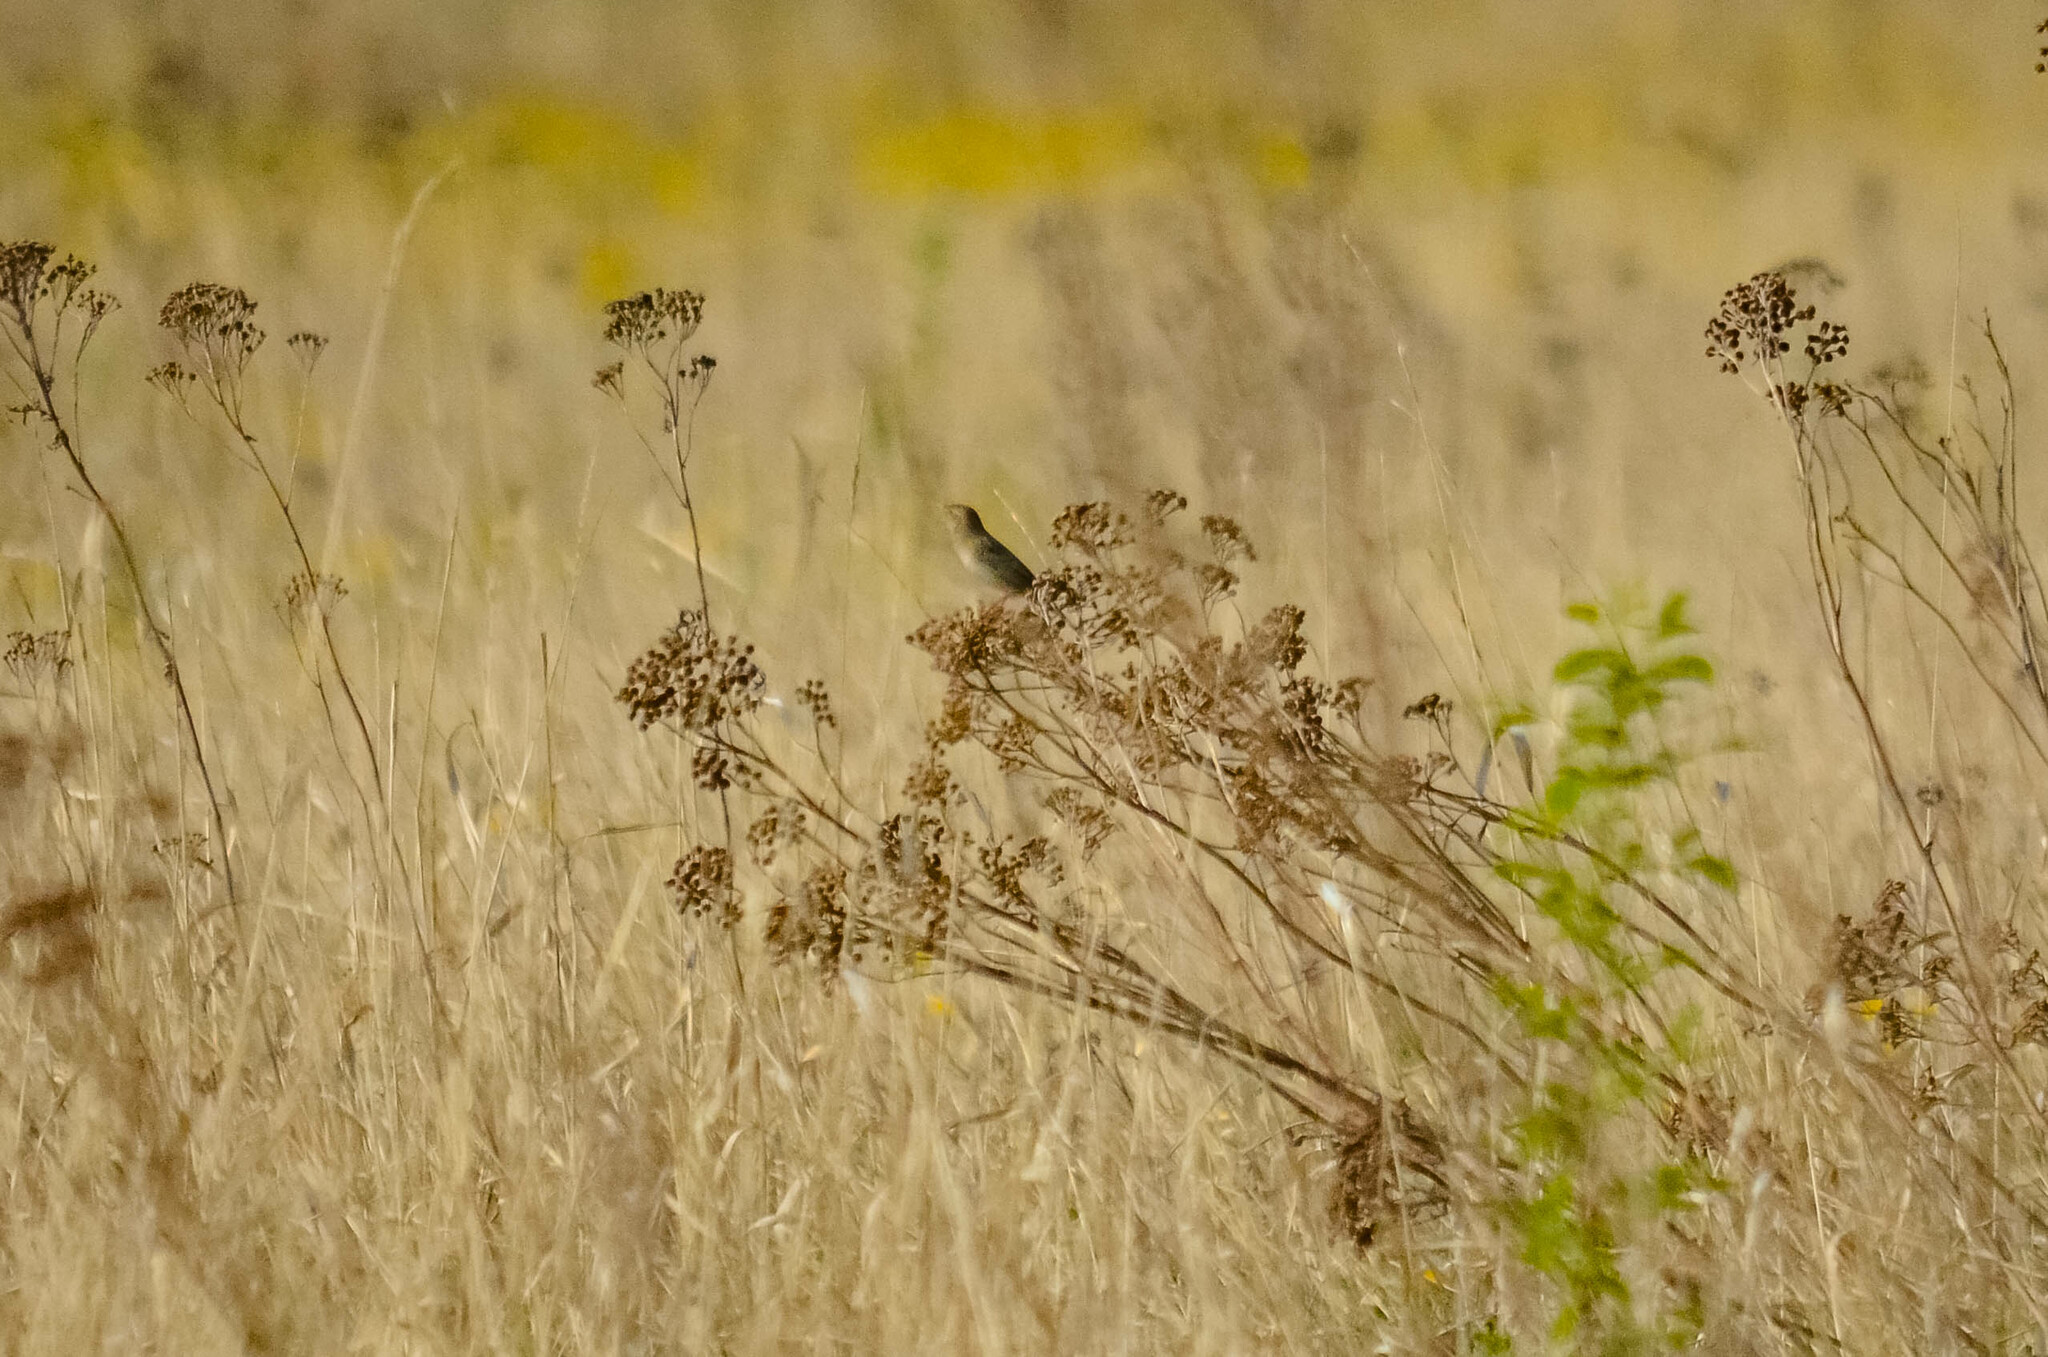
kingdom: Animalia
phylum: Chordata
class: Aves
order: Passeriformes
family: Locustellidae
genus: Locustella
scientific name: Locustella naevia
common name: Common grasshopper warbler
